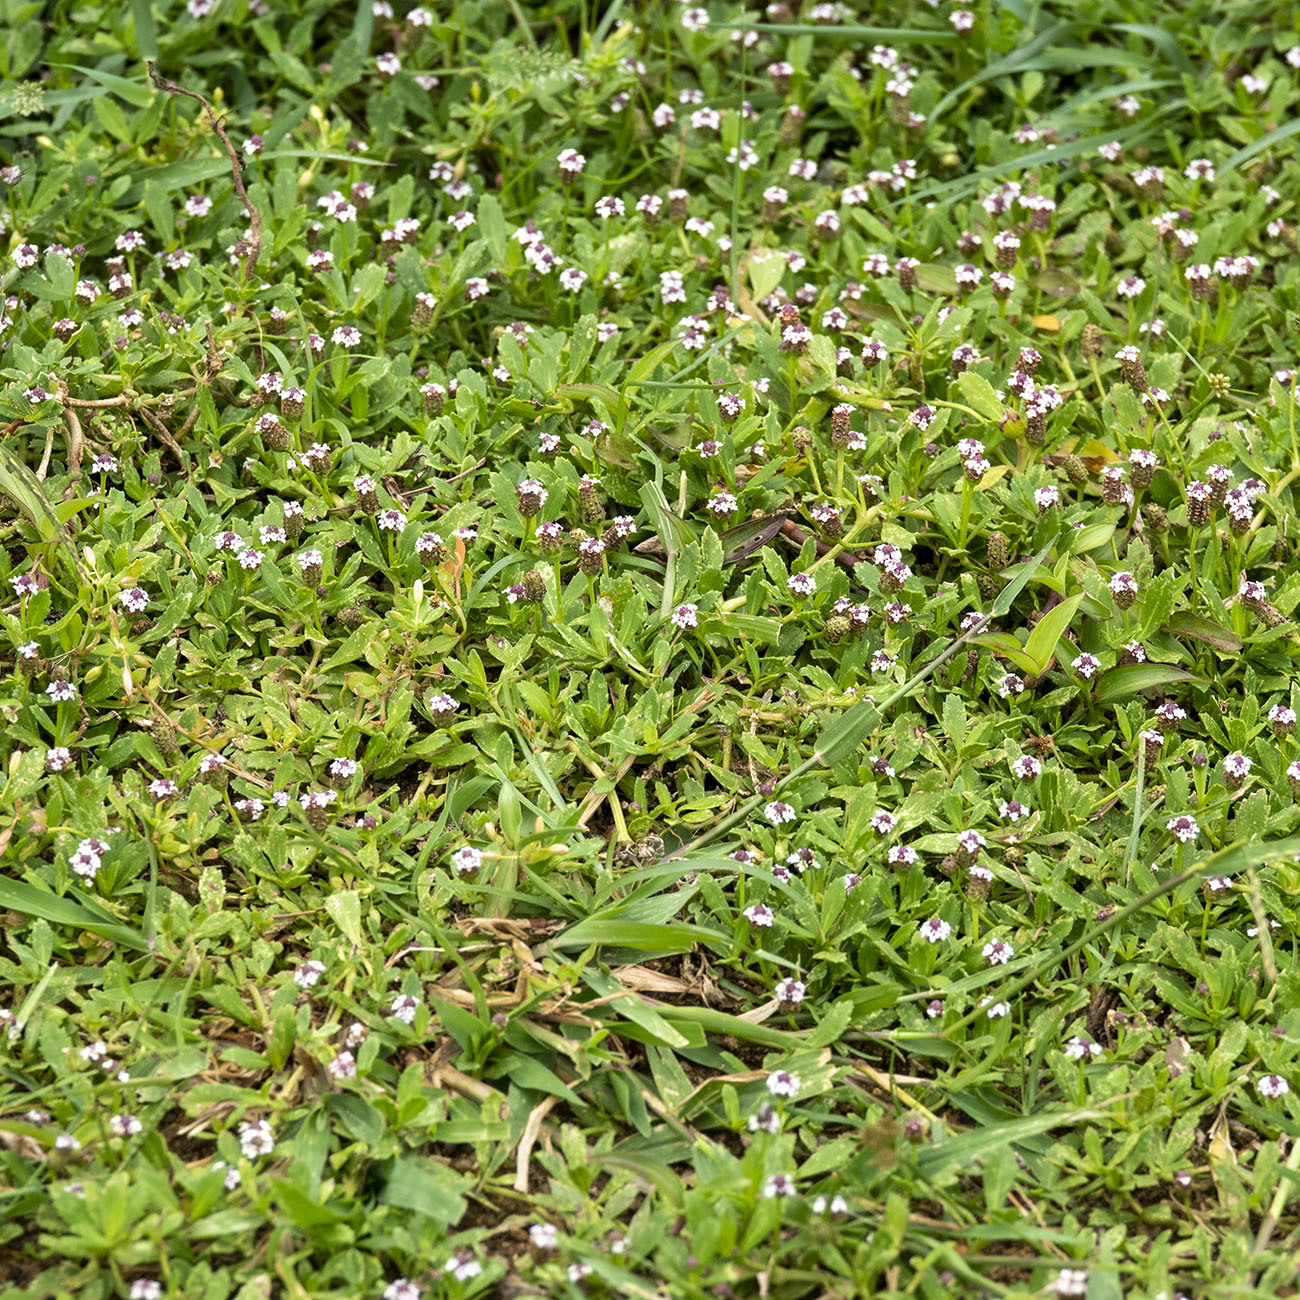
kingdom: Plantae
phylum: Tracheophyta
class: Magnoliopsida
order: Lamiales
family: Verbenaceae
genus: Phyla
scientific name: Phyla nodiflora
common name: Frogfruit
